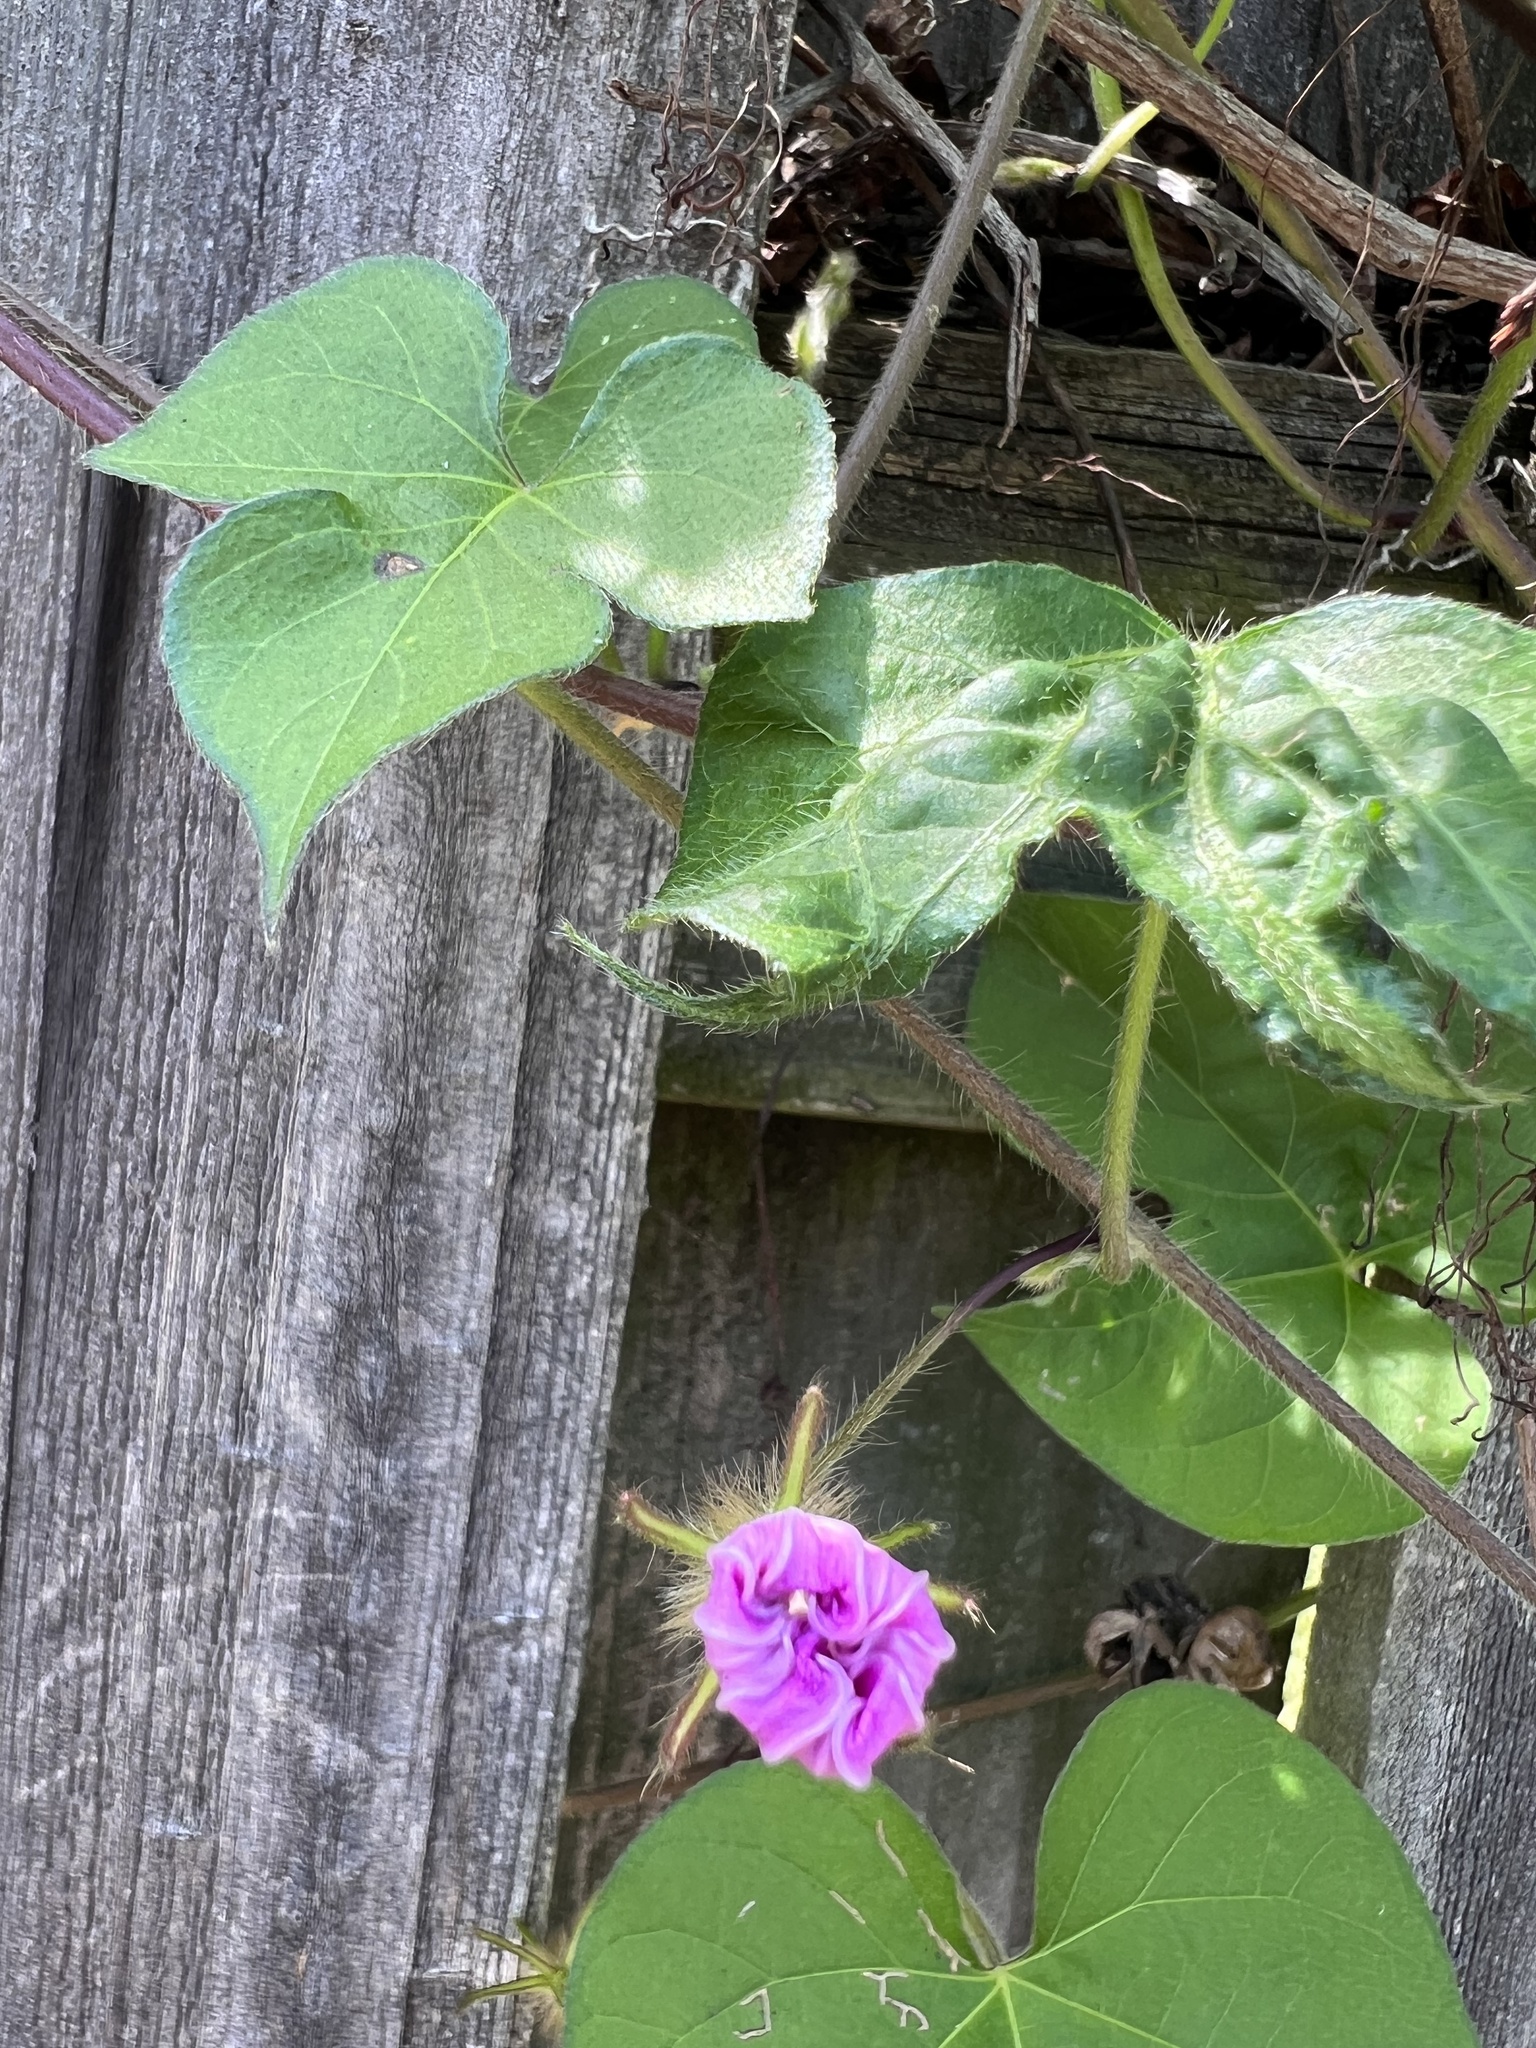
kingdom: Plantae
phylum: Tracheophyta
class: Magnoliopsida
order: Solanales
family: Convolvulaceae
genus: Ipomoea
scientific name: Ipomoea nil
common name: Japanese morning-glory
